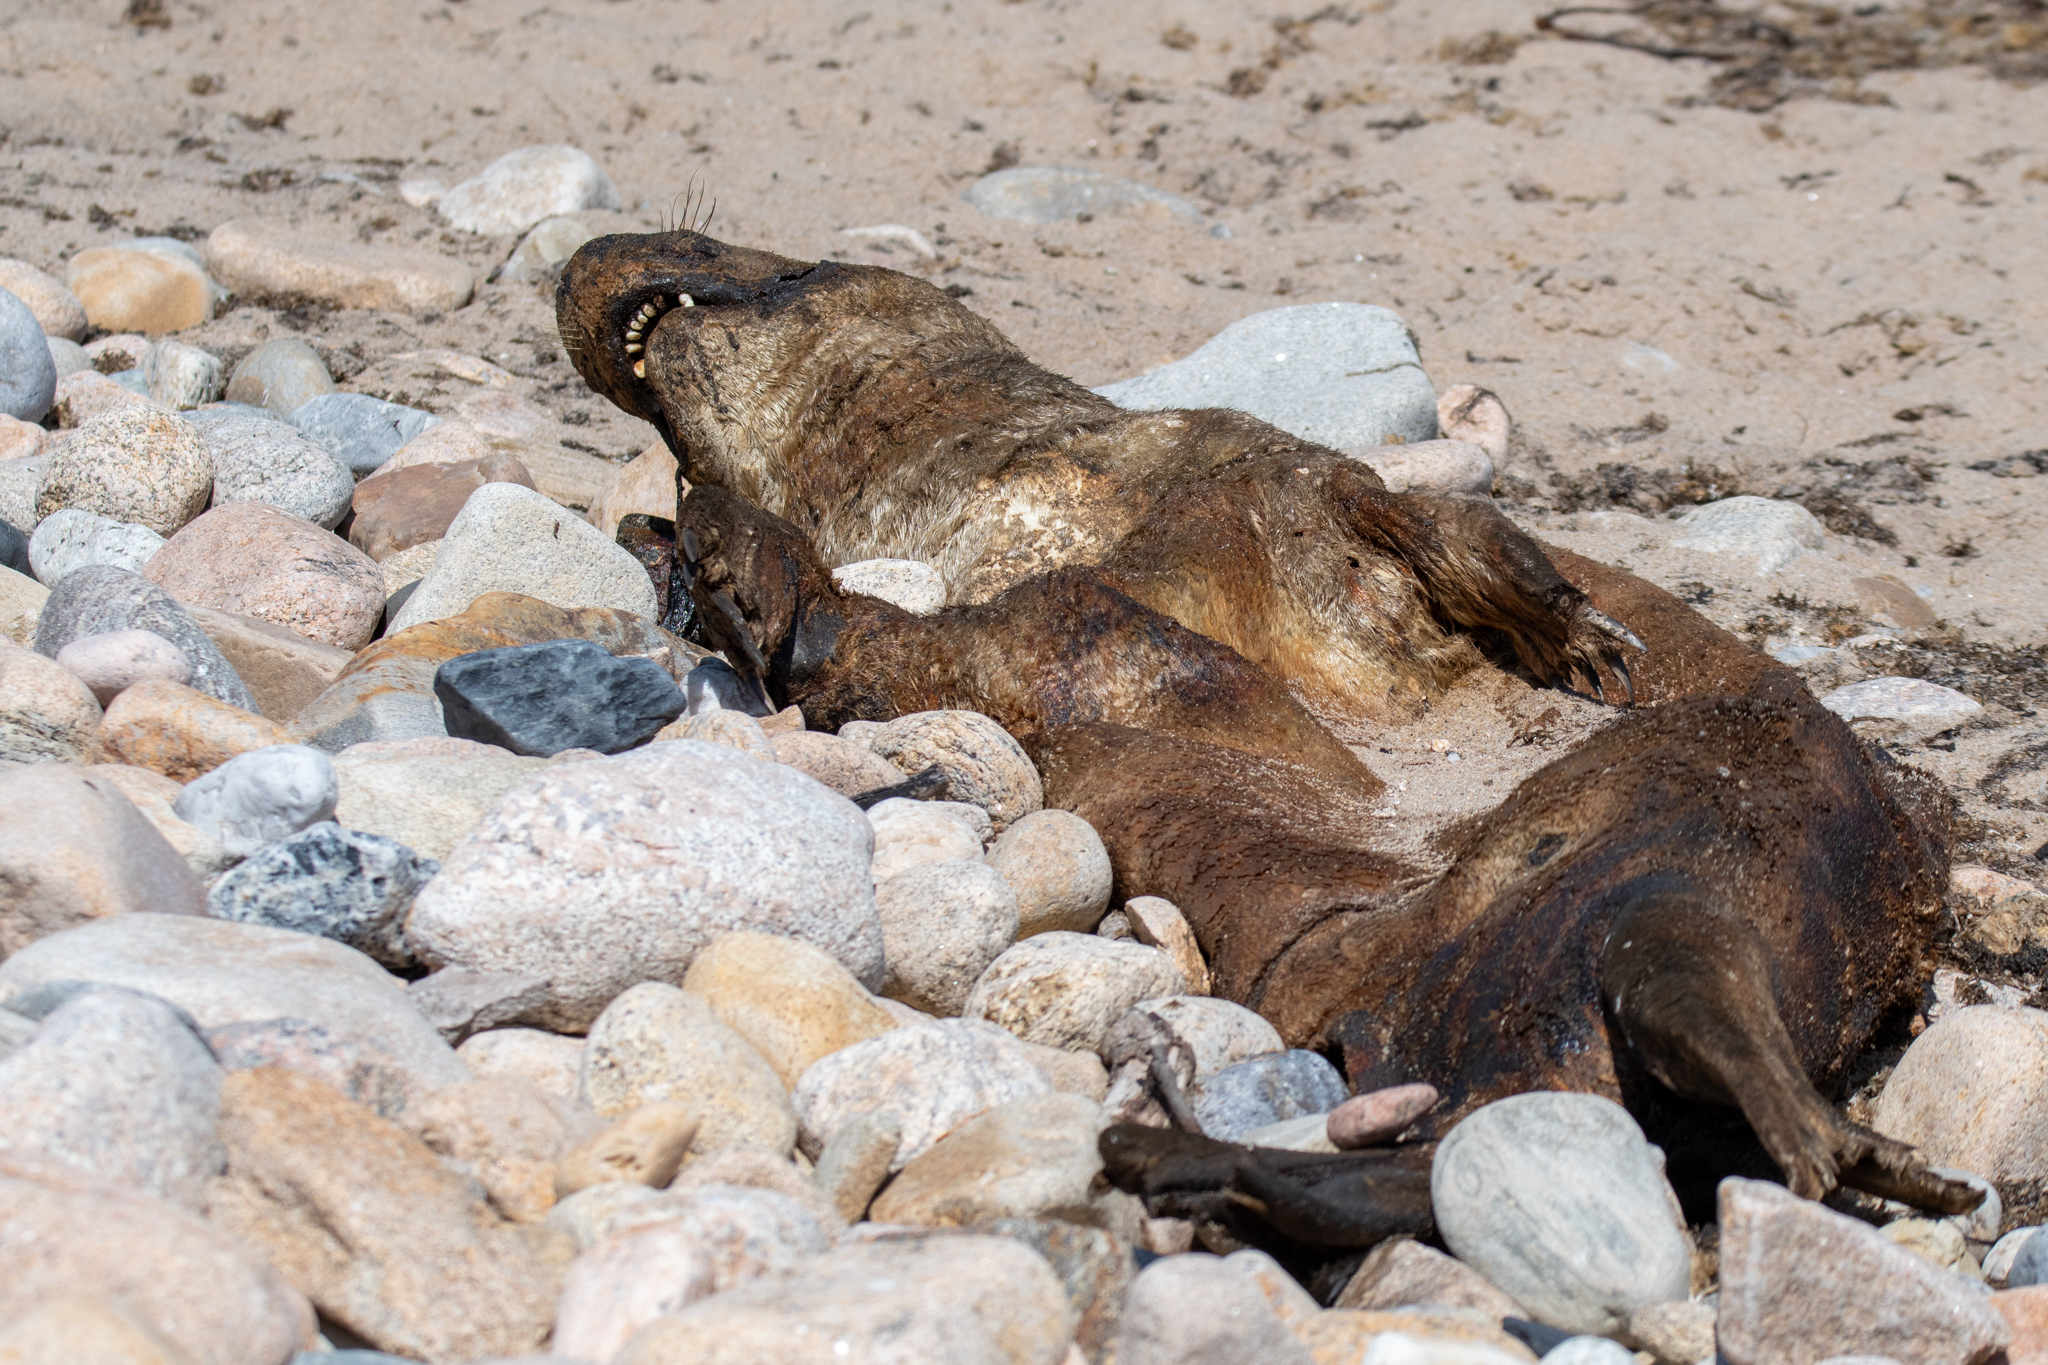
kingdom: Animalia
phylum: Chordata
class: Mammalia
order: Carnivora
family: Phocidae
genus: Halichoerus
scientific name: Halichoerus grypus
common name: Grey seal
